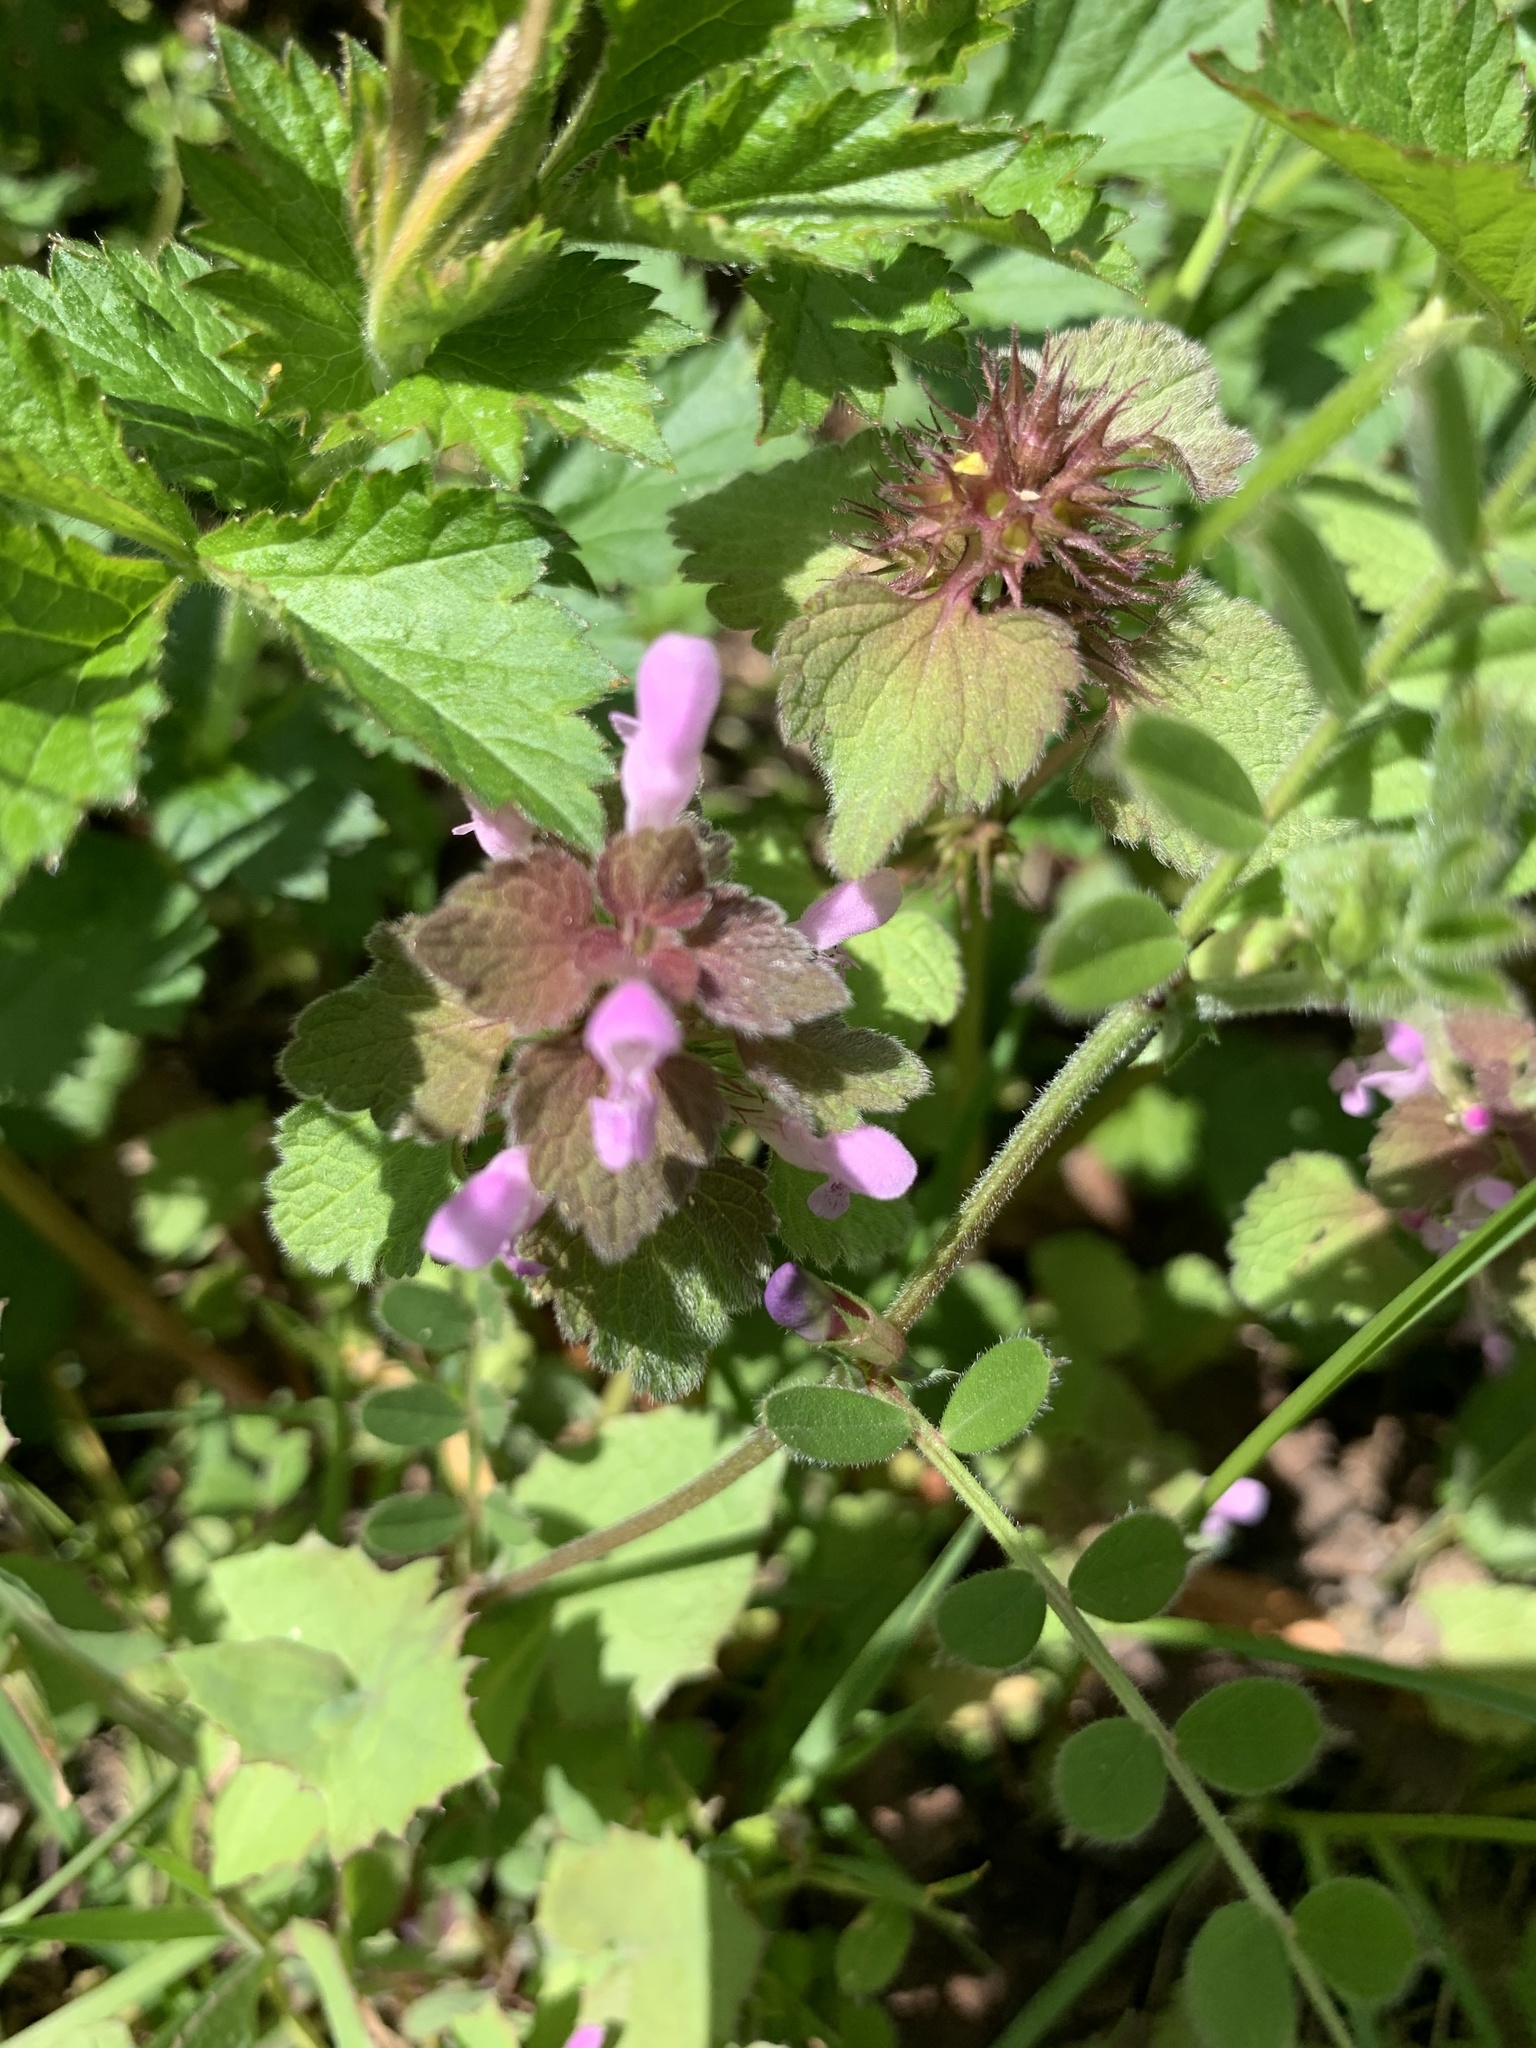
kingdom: Plantae
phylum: Tracheophyta
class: Magnoliopsida
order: Lamiales
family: Lamiaceae
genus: Lamium
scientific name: Lamium purpureum
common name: Red dead-nettle
